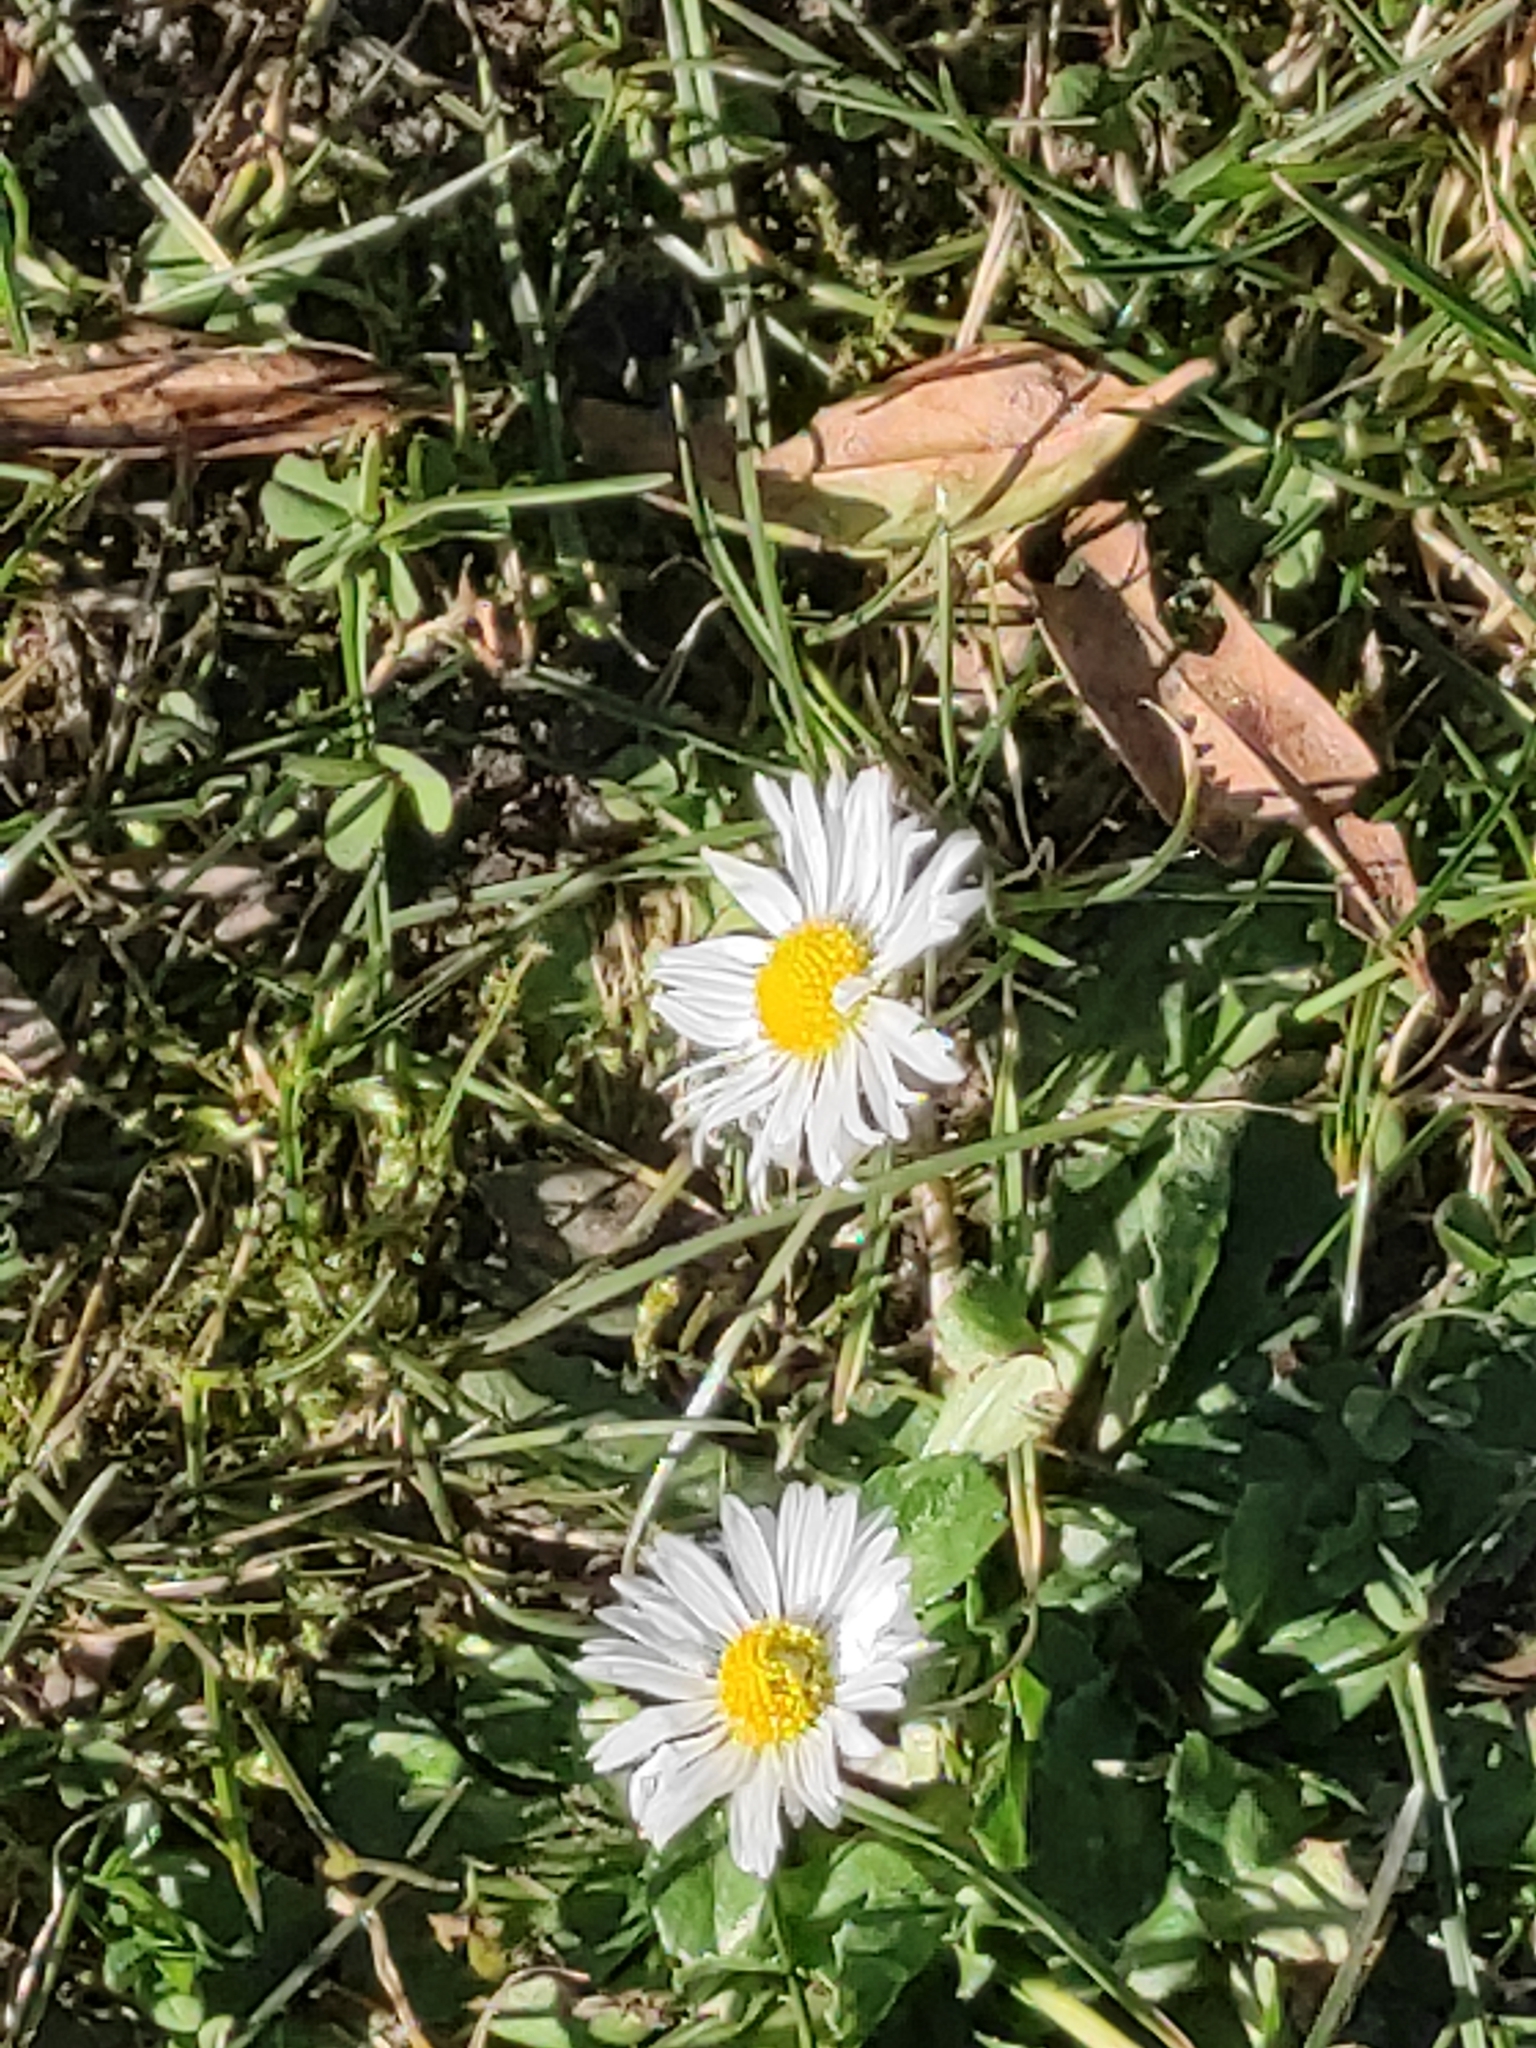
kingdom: Plantae
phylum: Tracheophyta
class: Magnoliopsida
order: Asterales
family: Asteraceae
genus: Bellis
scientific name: Bellis perennis
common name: Lawndaisy
